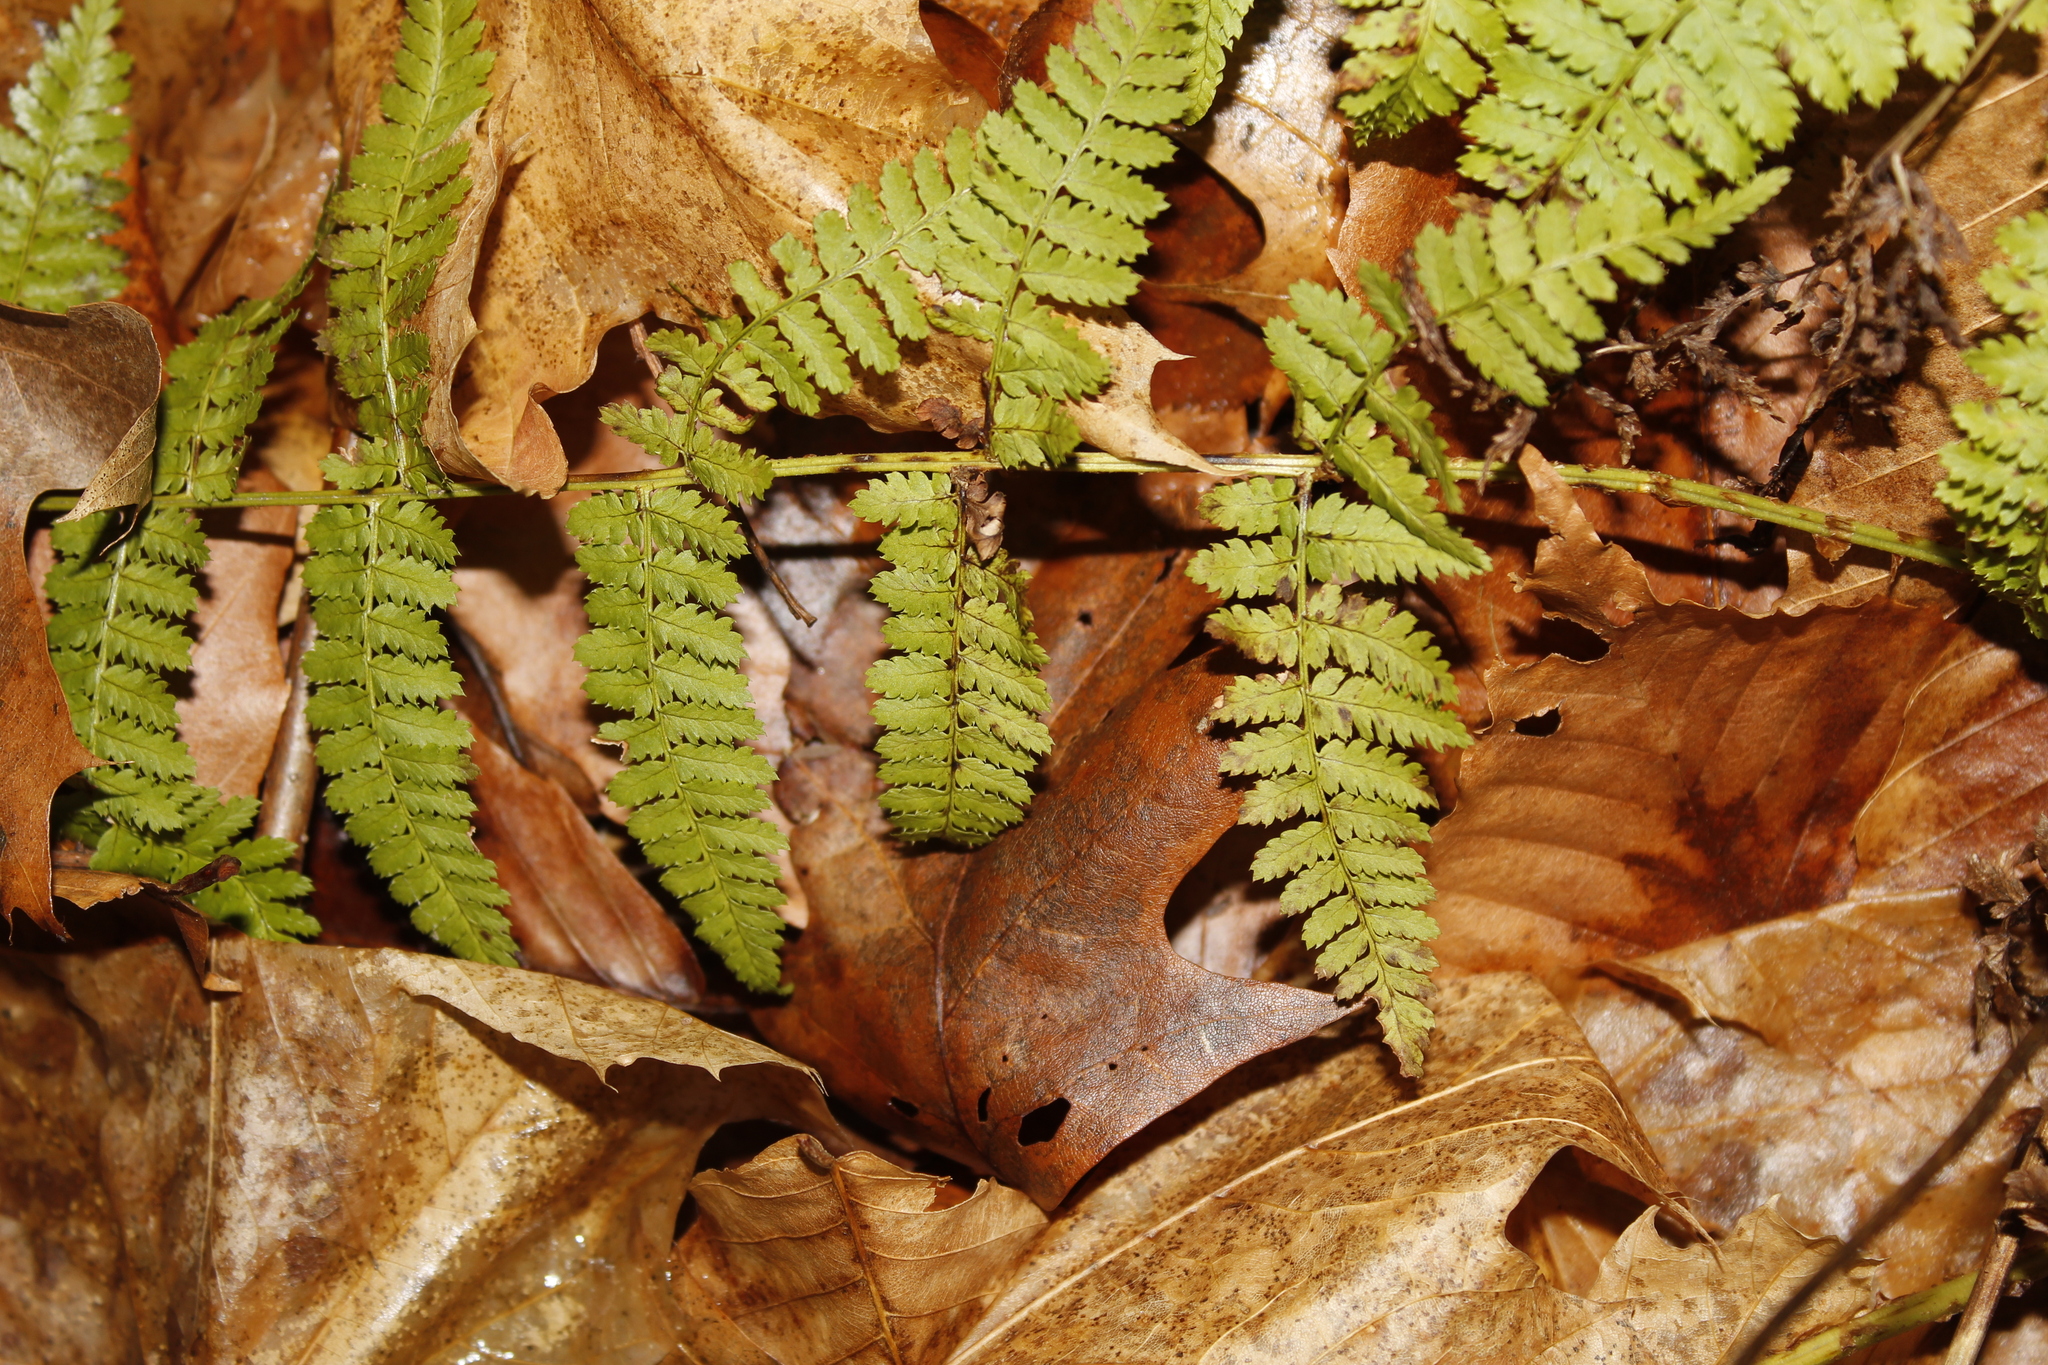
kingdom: Plantae
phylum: Tracheophyta
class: Polypodiopsida
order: Polypodiales
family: Dryopteridaceae
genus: Dryopteris
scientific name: Dryopteris intermedia
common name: Evergreen wood fern
